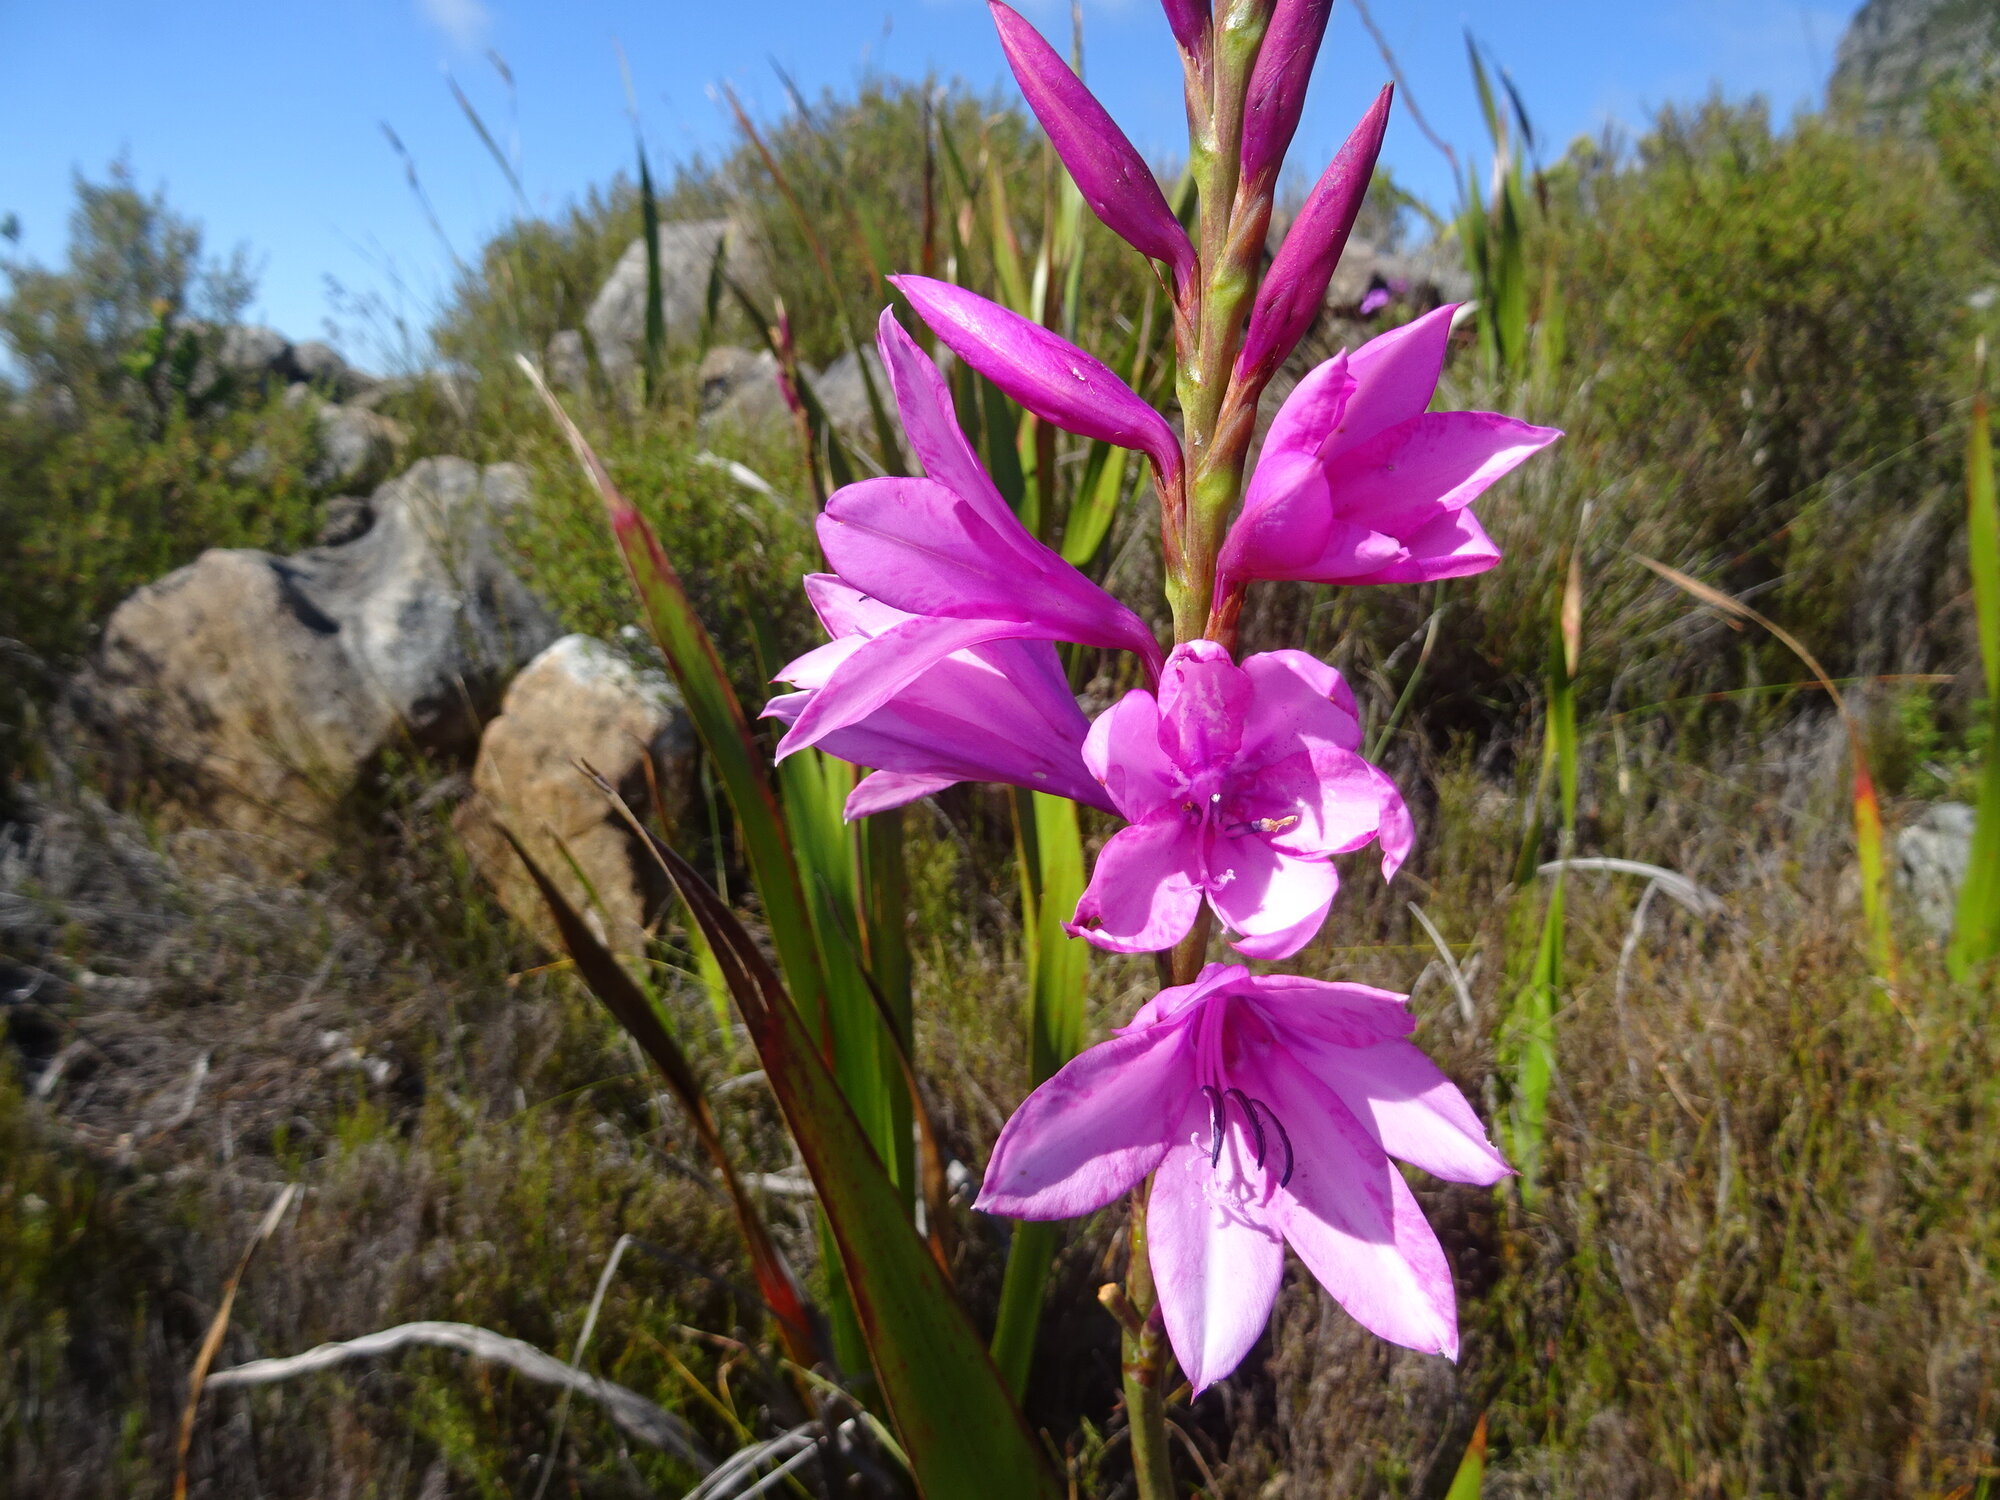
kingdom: Plantae
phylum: Tracheophyta
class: Liliopsida
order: Asparagales
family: Iridaceae
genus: Watsonia
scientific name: Watsonia borbonica
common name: Bugle-lily
